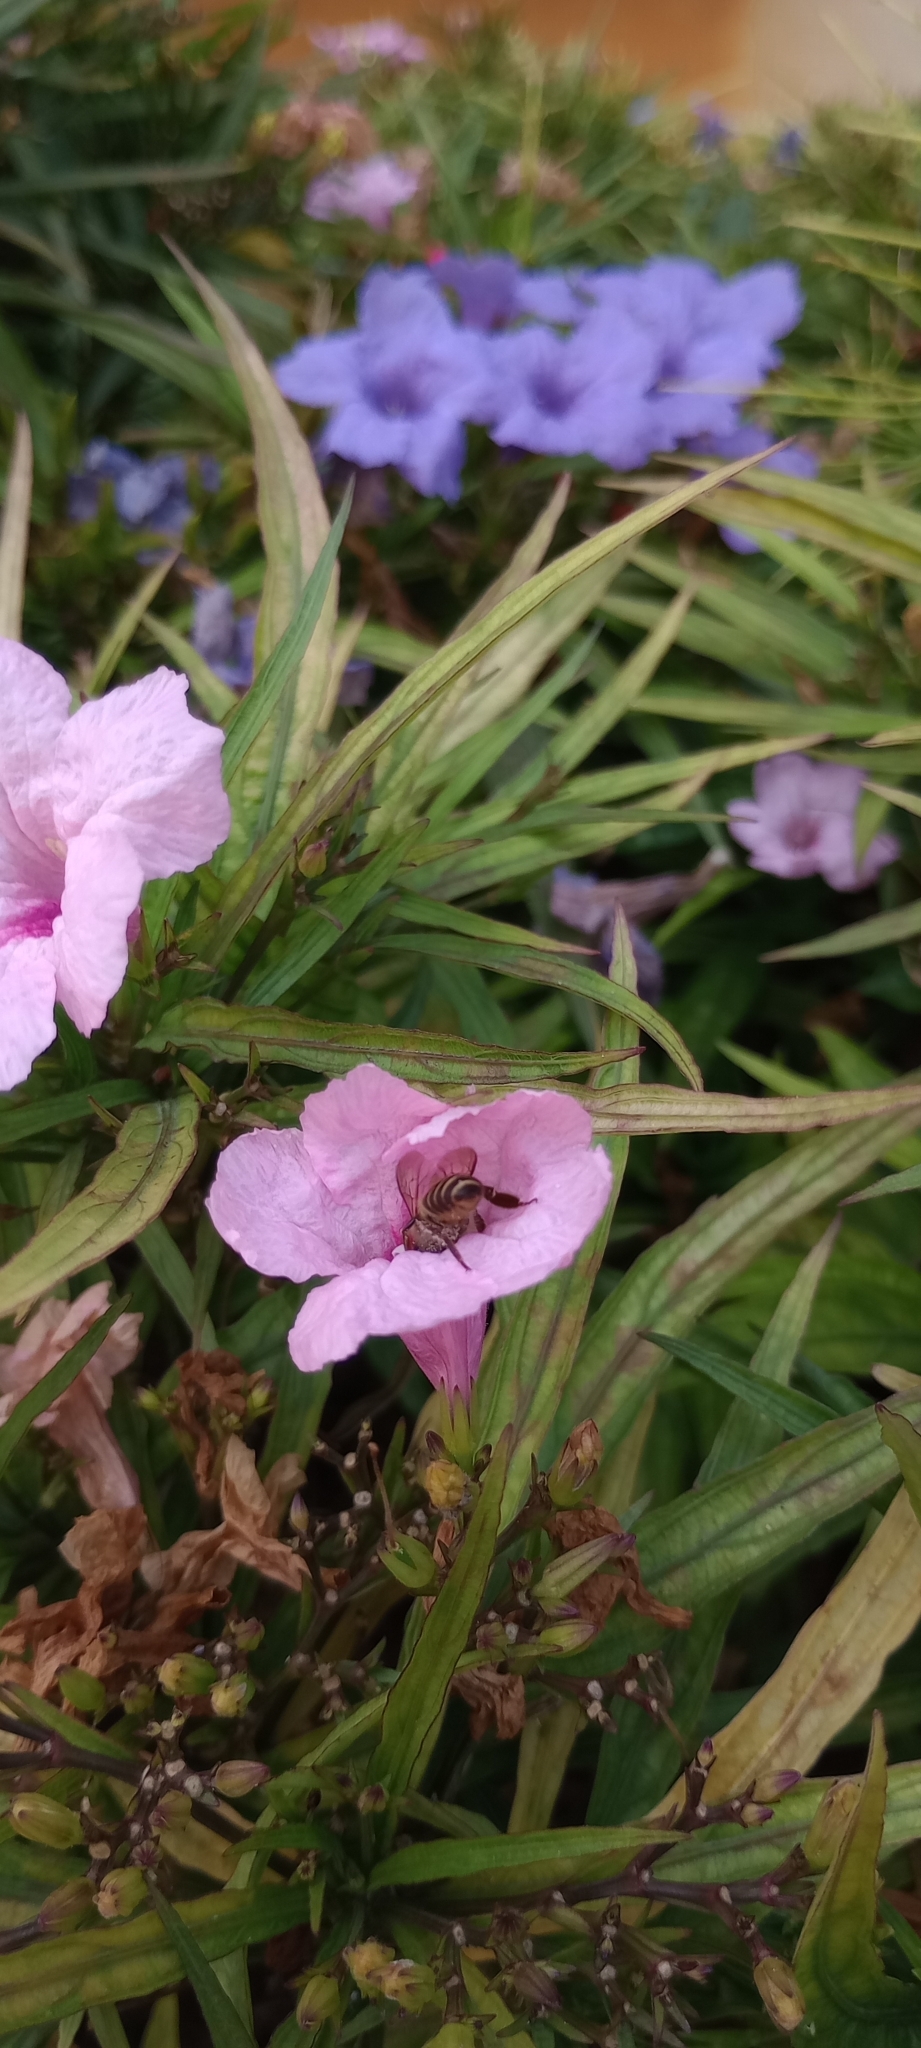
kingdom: Animalia
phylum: Arthropoda
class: Insecta
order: Hymenoptera
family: Apidae
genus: Apis
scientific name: Apis cerana
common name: Honey bee
